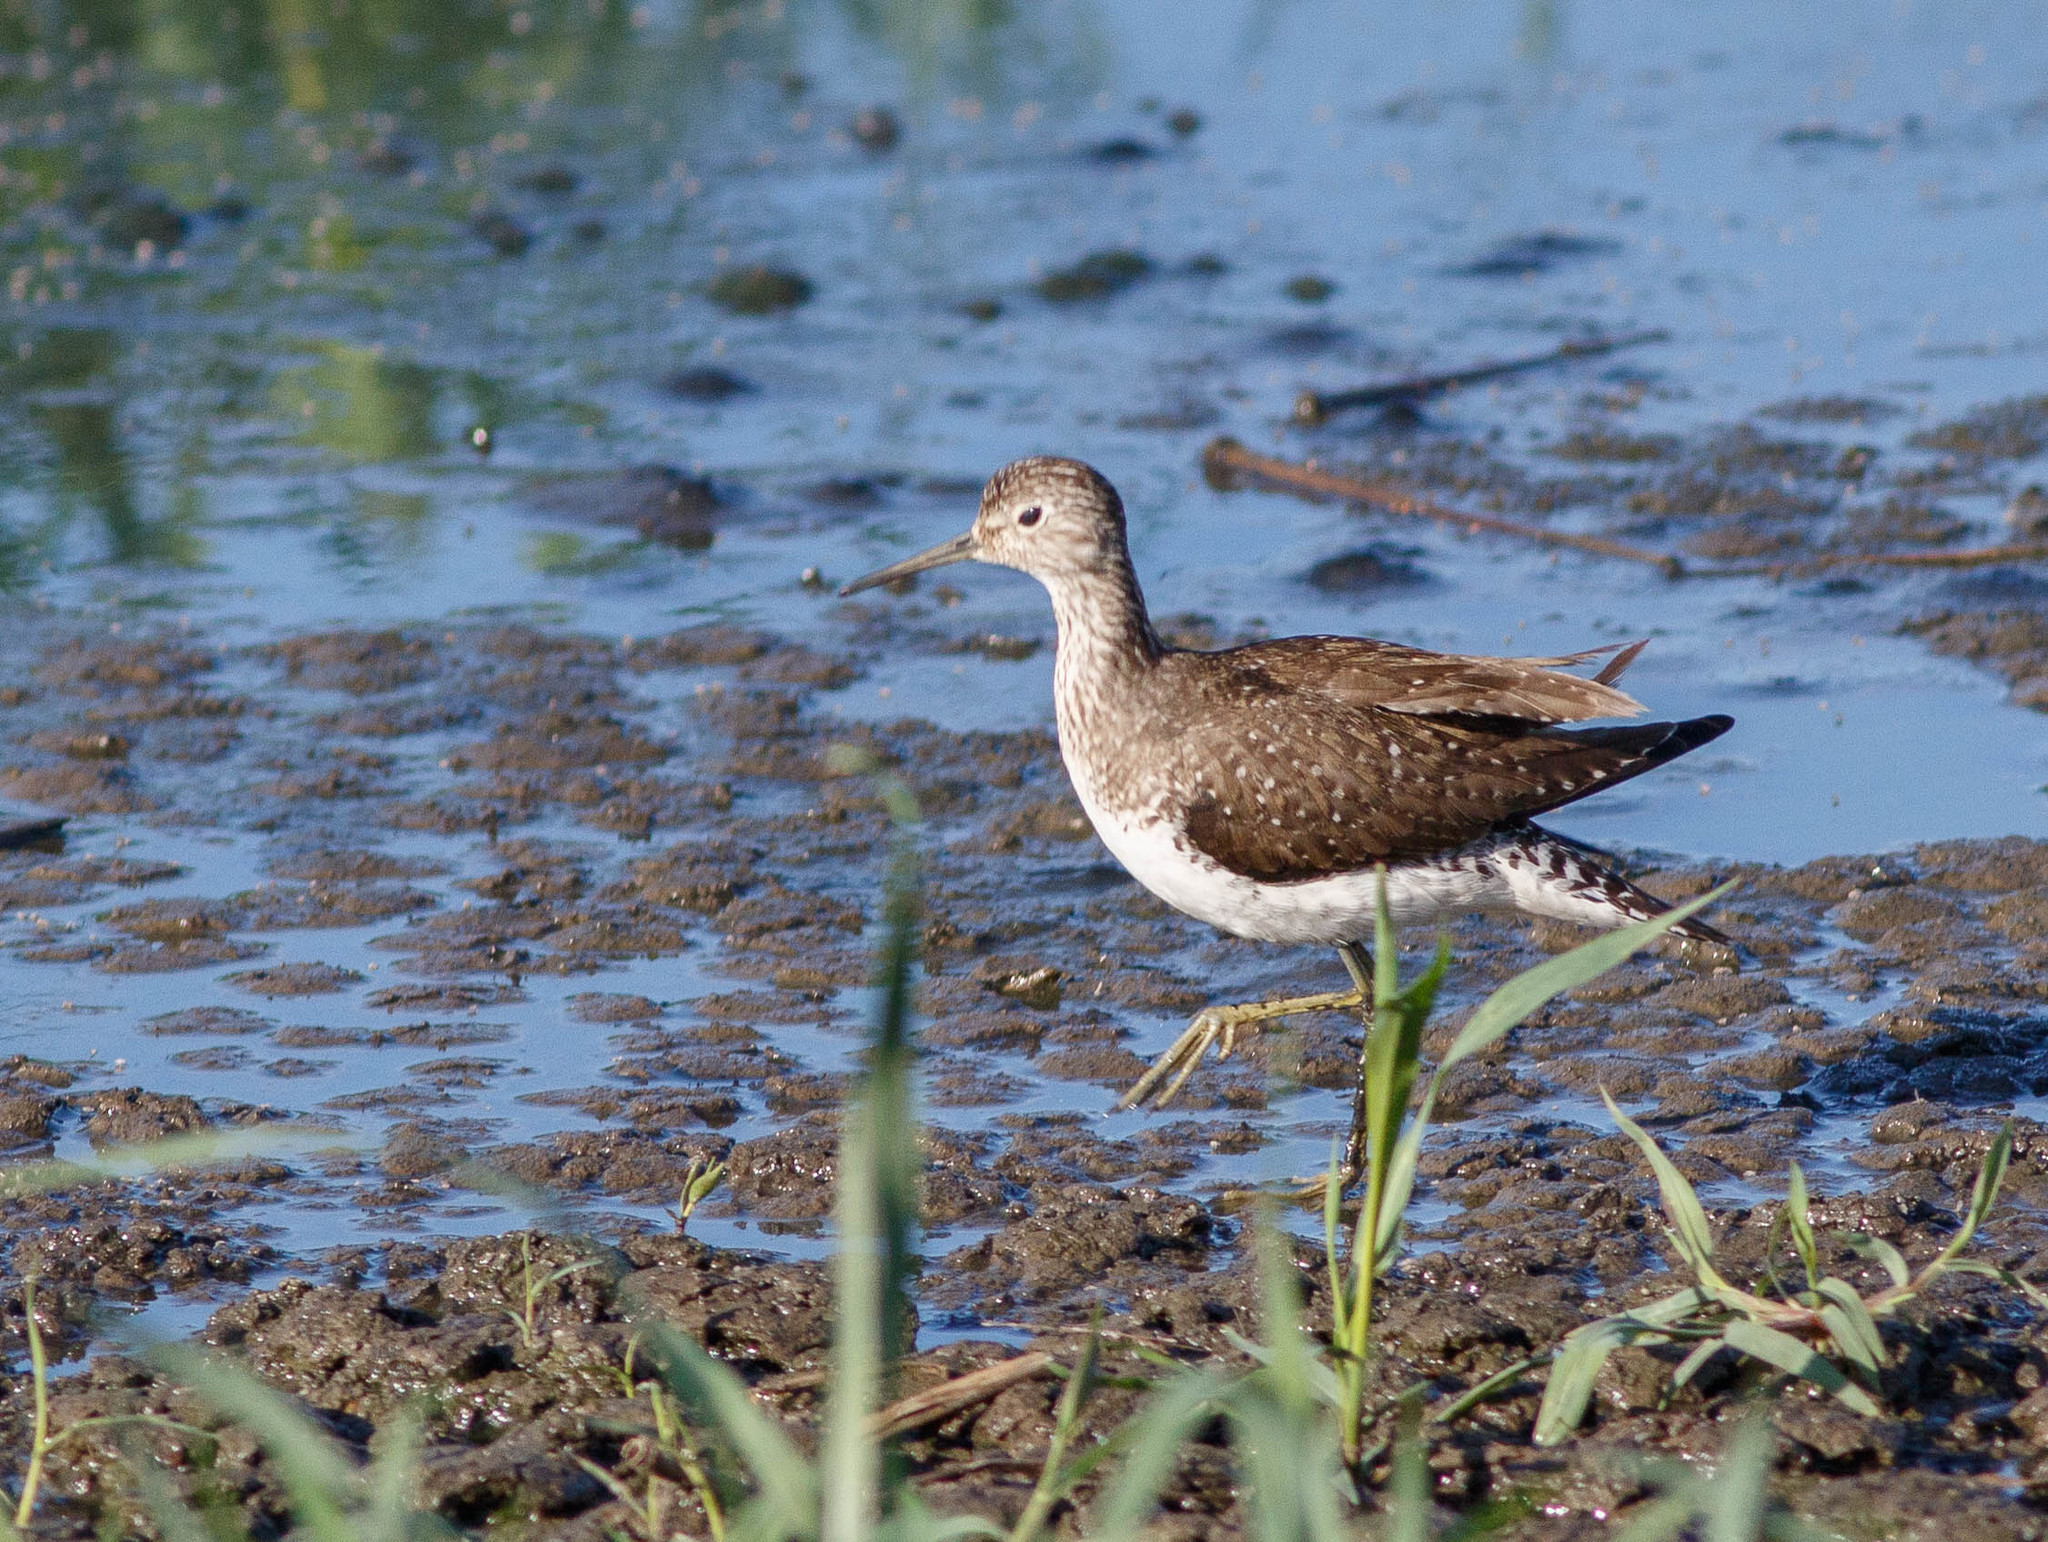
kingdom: Animalia
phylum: Chordata
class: Aves
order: Charadriiformes
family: Scolopacidae
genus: Tringa
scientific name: Tringa solitaria
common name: Solitary sandpiper
